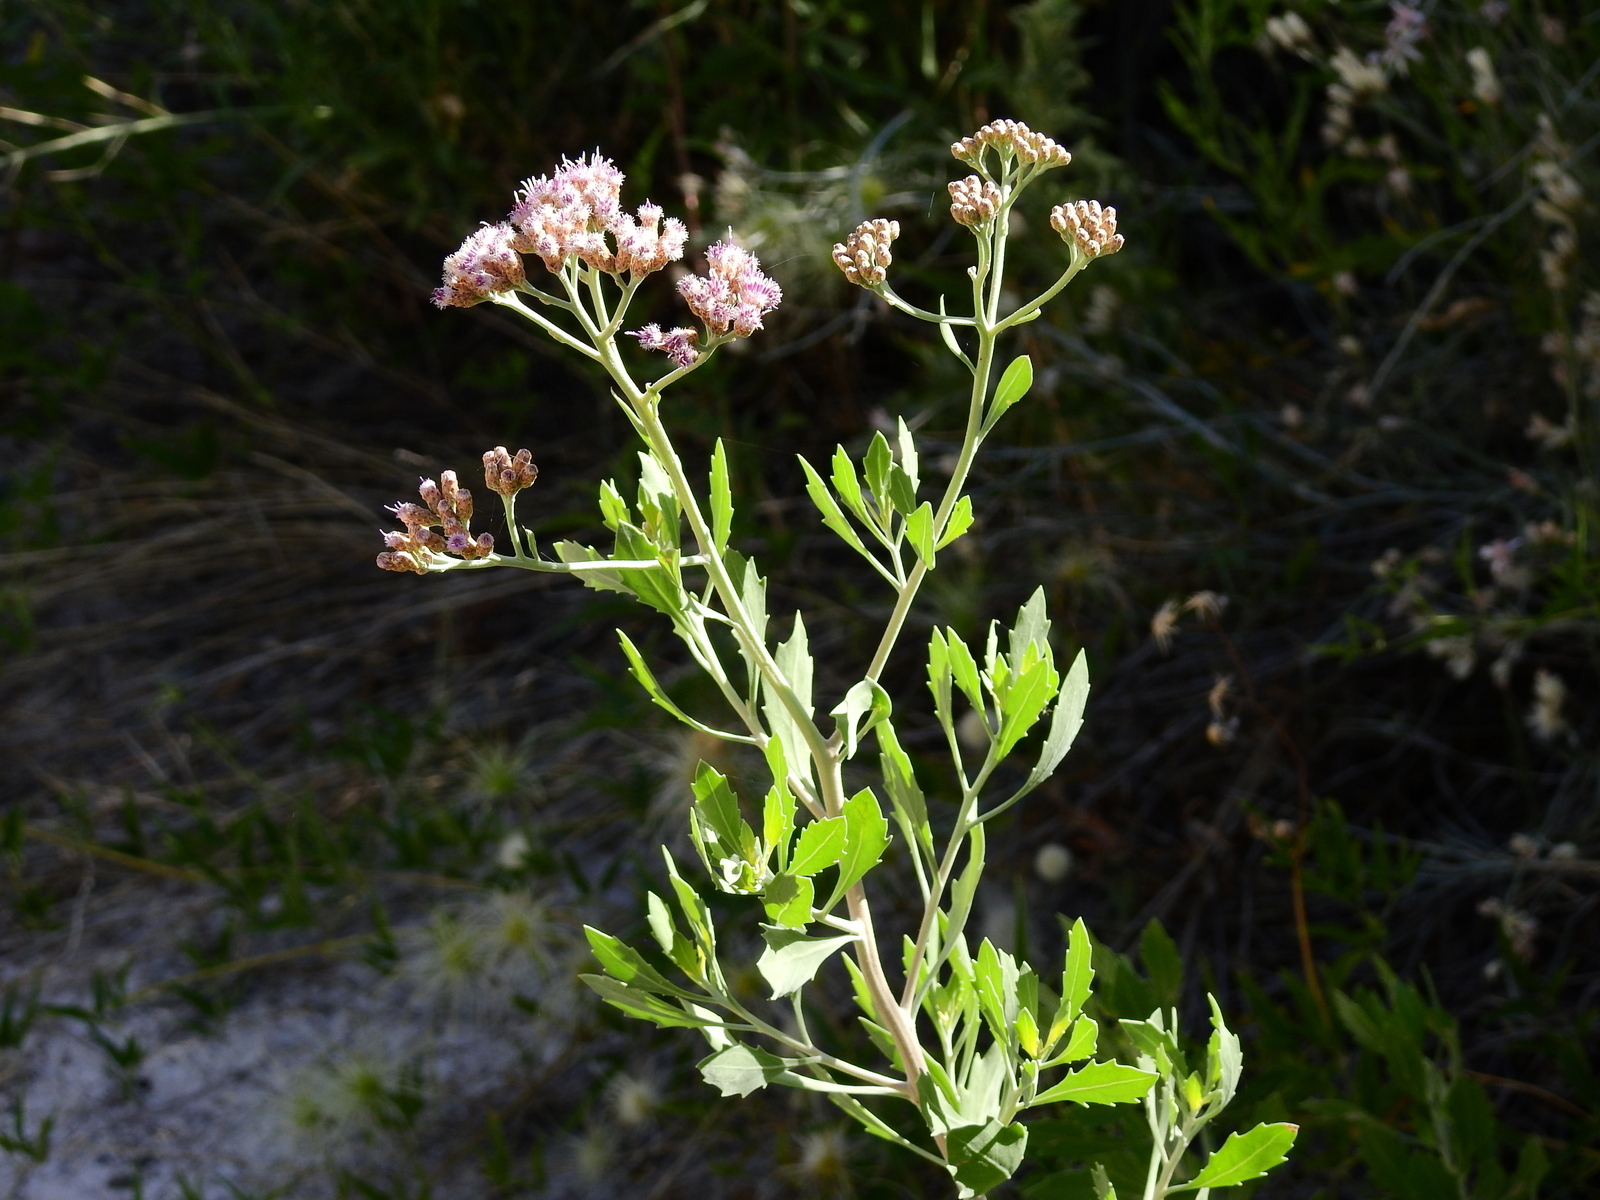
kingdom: Plantae
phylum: Tracheophyta
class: Magnoliopsida
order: Asterales
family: Asteraceae
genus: Tessaria
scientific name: Tessaria absinthioides
